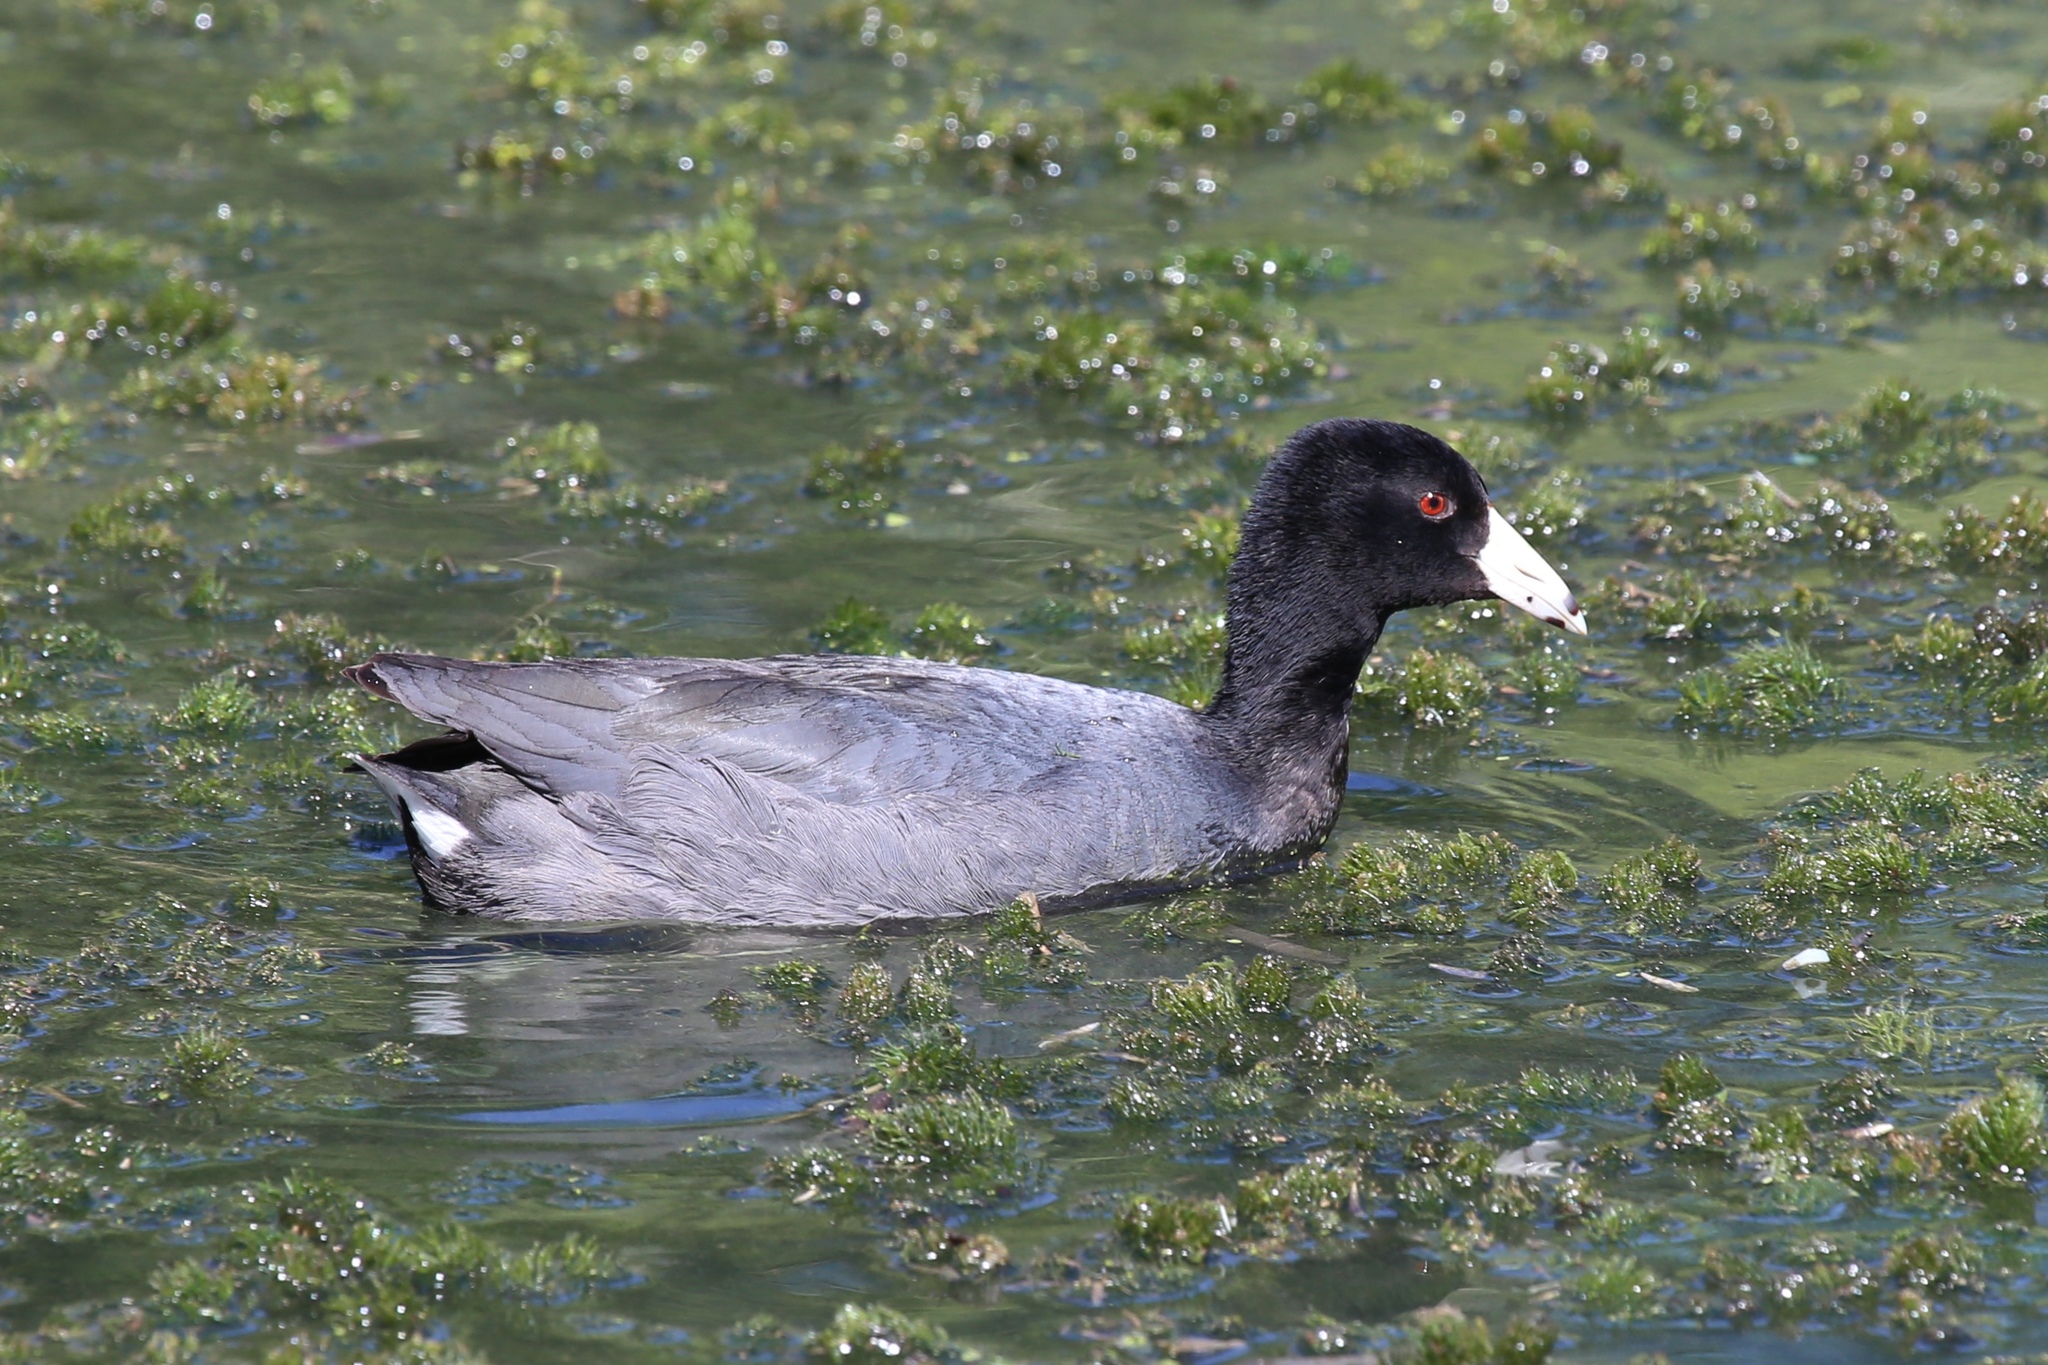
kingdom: Animalia
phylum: Chordata
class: Aves
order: Gruiformes
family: Rallidae
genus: Fulica
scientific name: Fulica americana
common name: American coot
